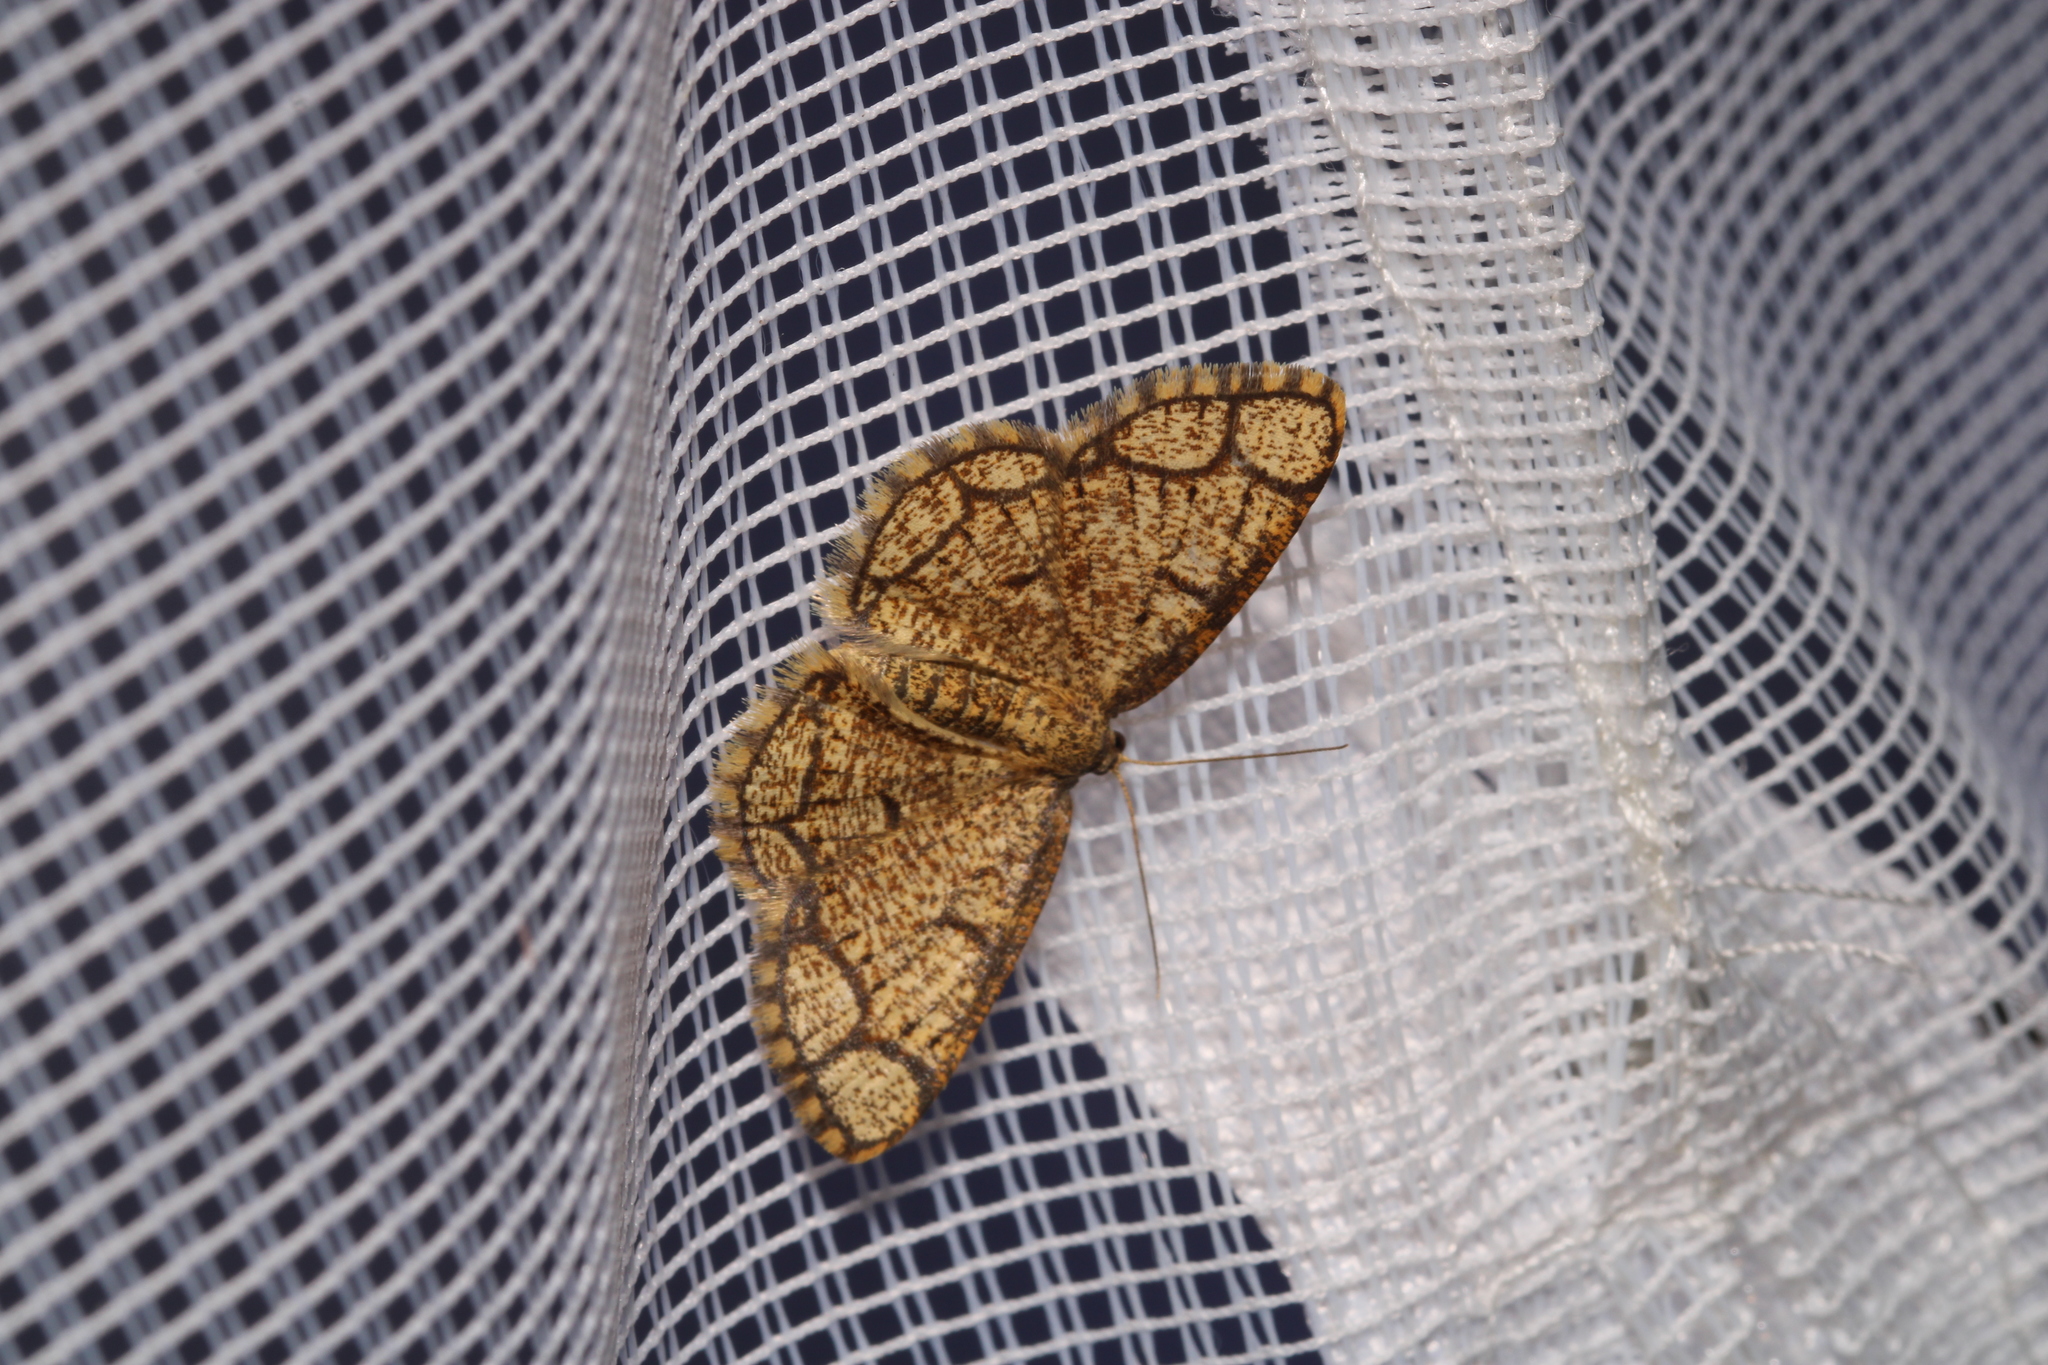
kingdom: Animalia
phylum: Arthropoda
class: Insecta
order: Lepidoptera
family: Geometridae
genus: Stegania
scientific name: Stegania cararia
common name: Ringed border
